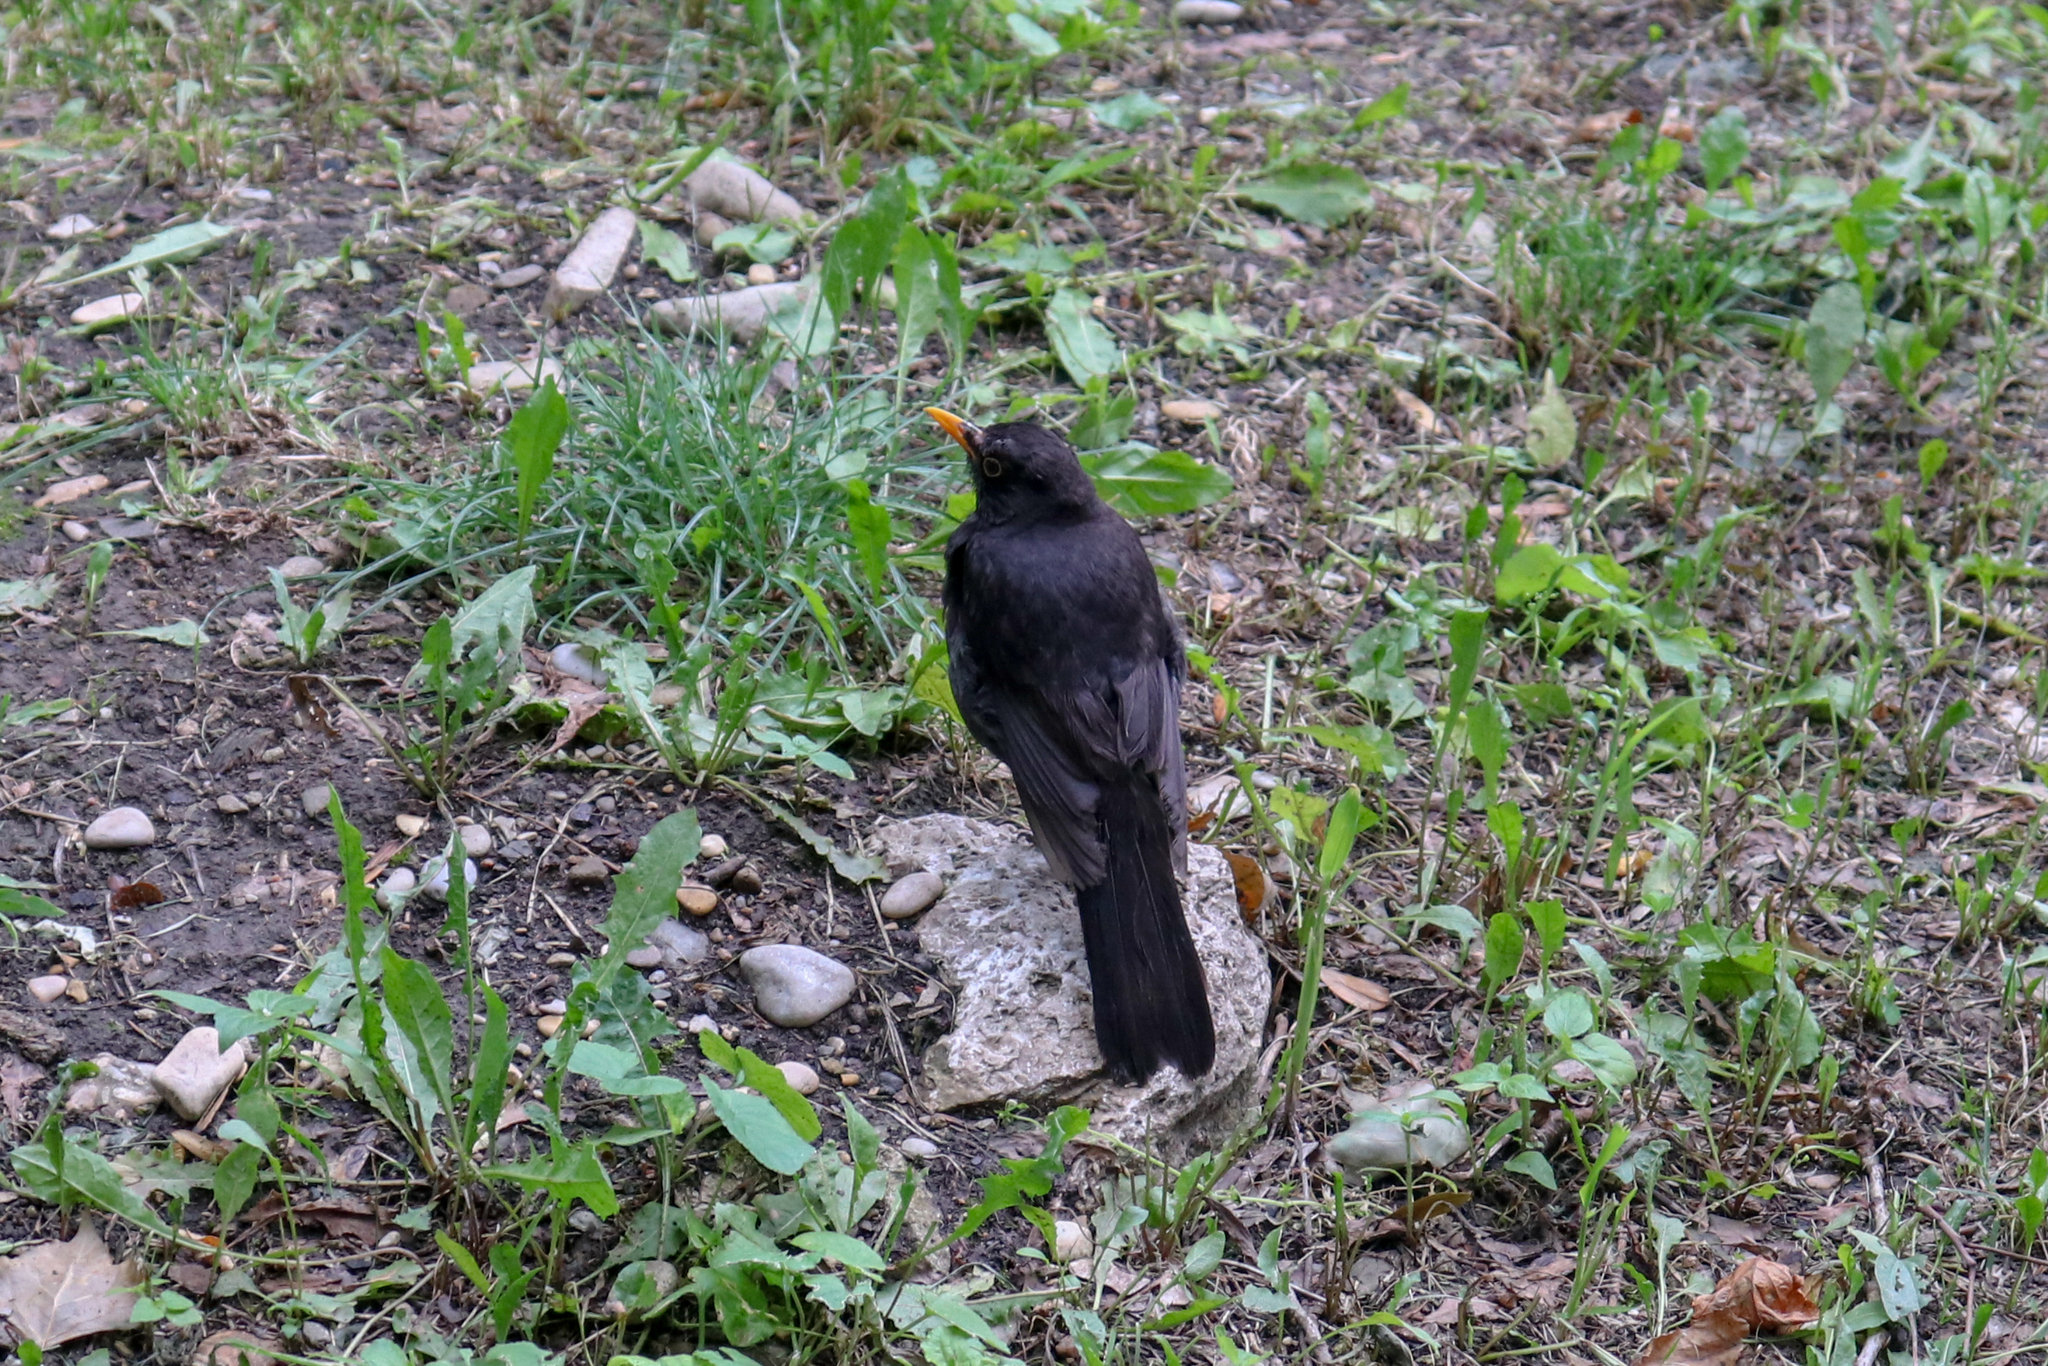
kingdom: Animalia
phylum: Chordata
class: Aves
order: Passeriformes
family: Turdidae
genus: Turdus
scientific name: Turdus merula
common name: Common blackbird
